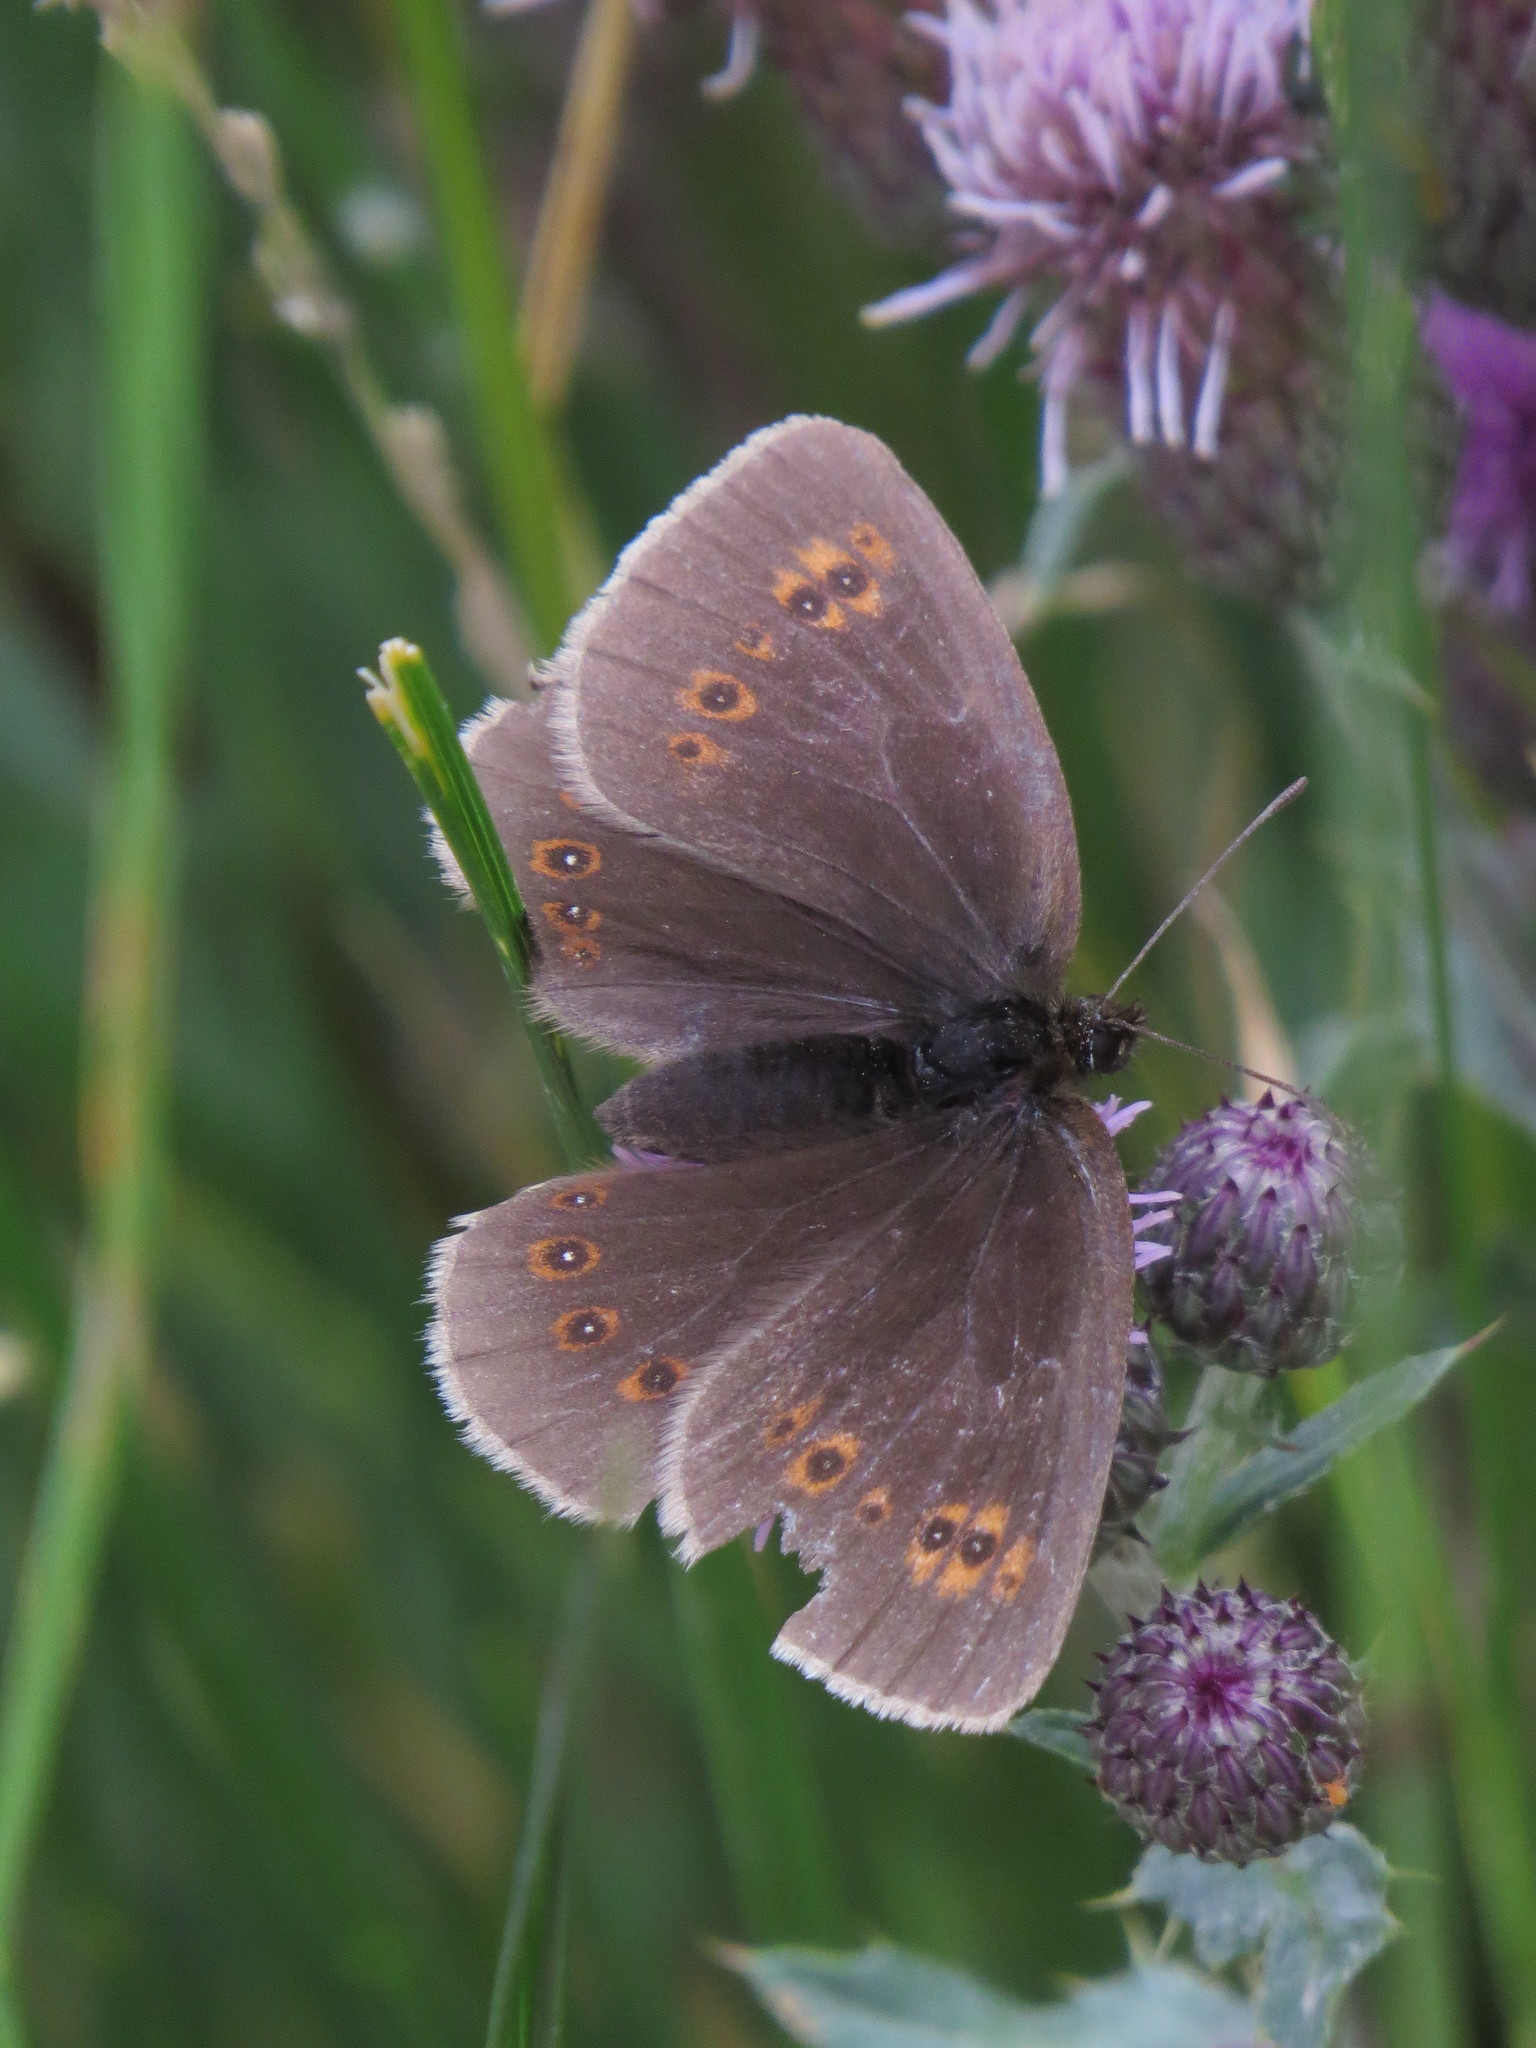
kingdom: Animalia
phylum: Arthropoda
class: Insecta
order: Lepidoptera
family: Nymphalidae
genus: Erebia
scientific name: Erebia alberganus
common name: Almond-eyed ringlet
